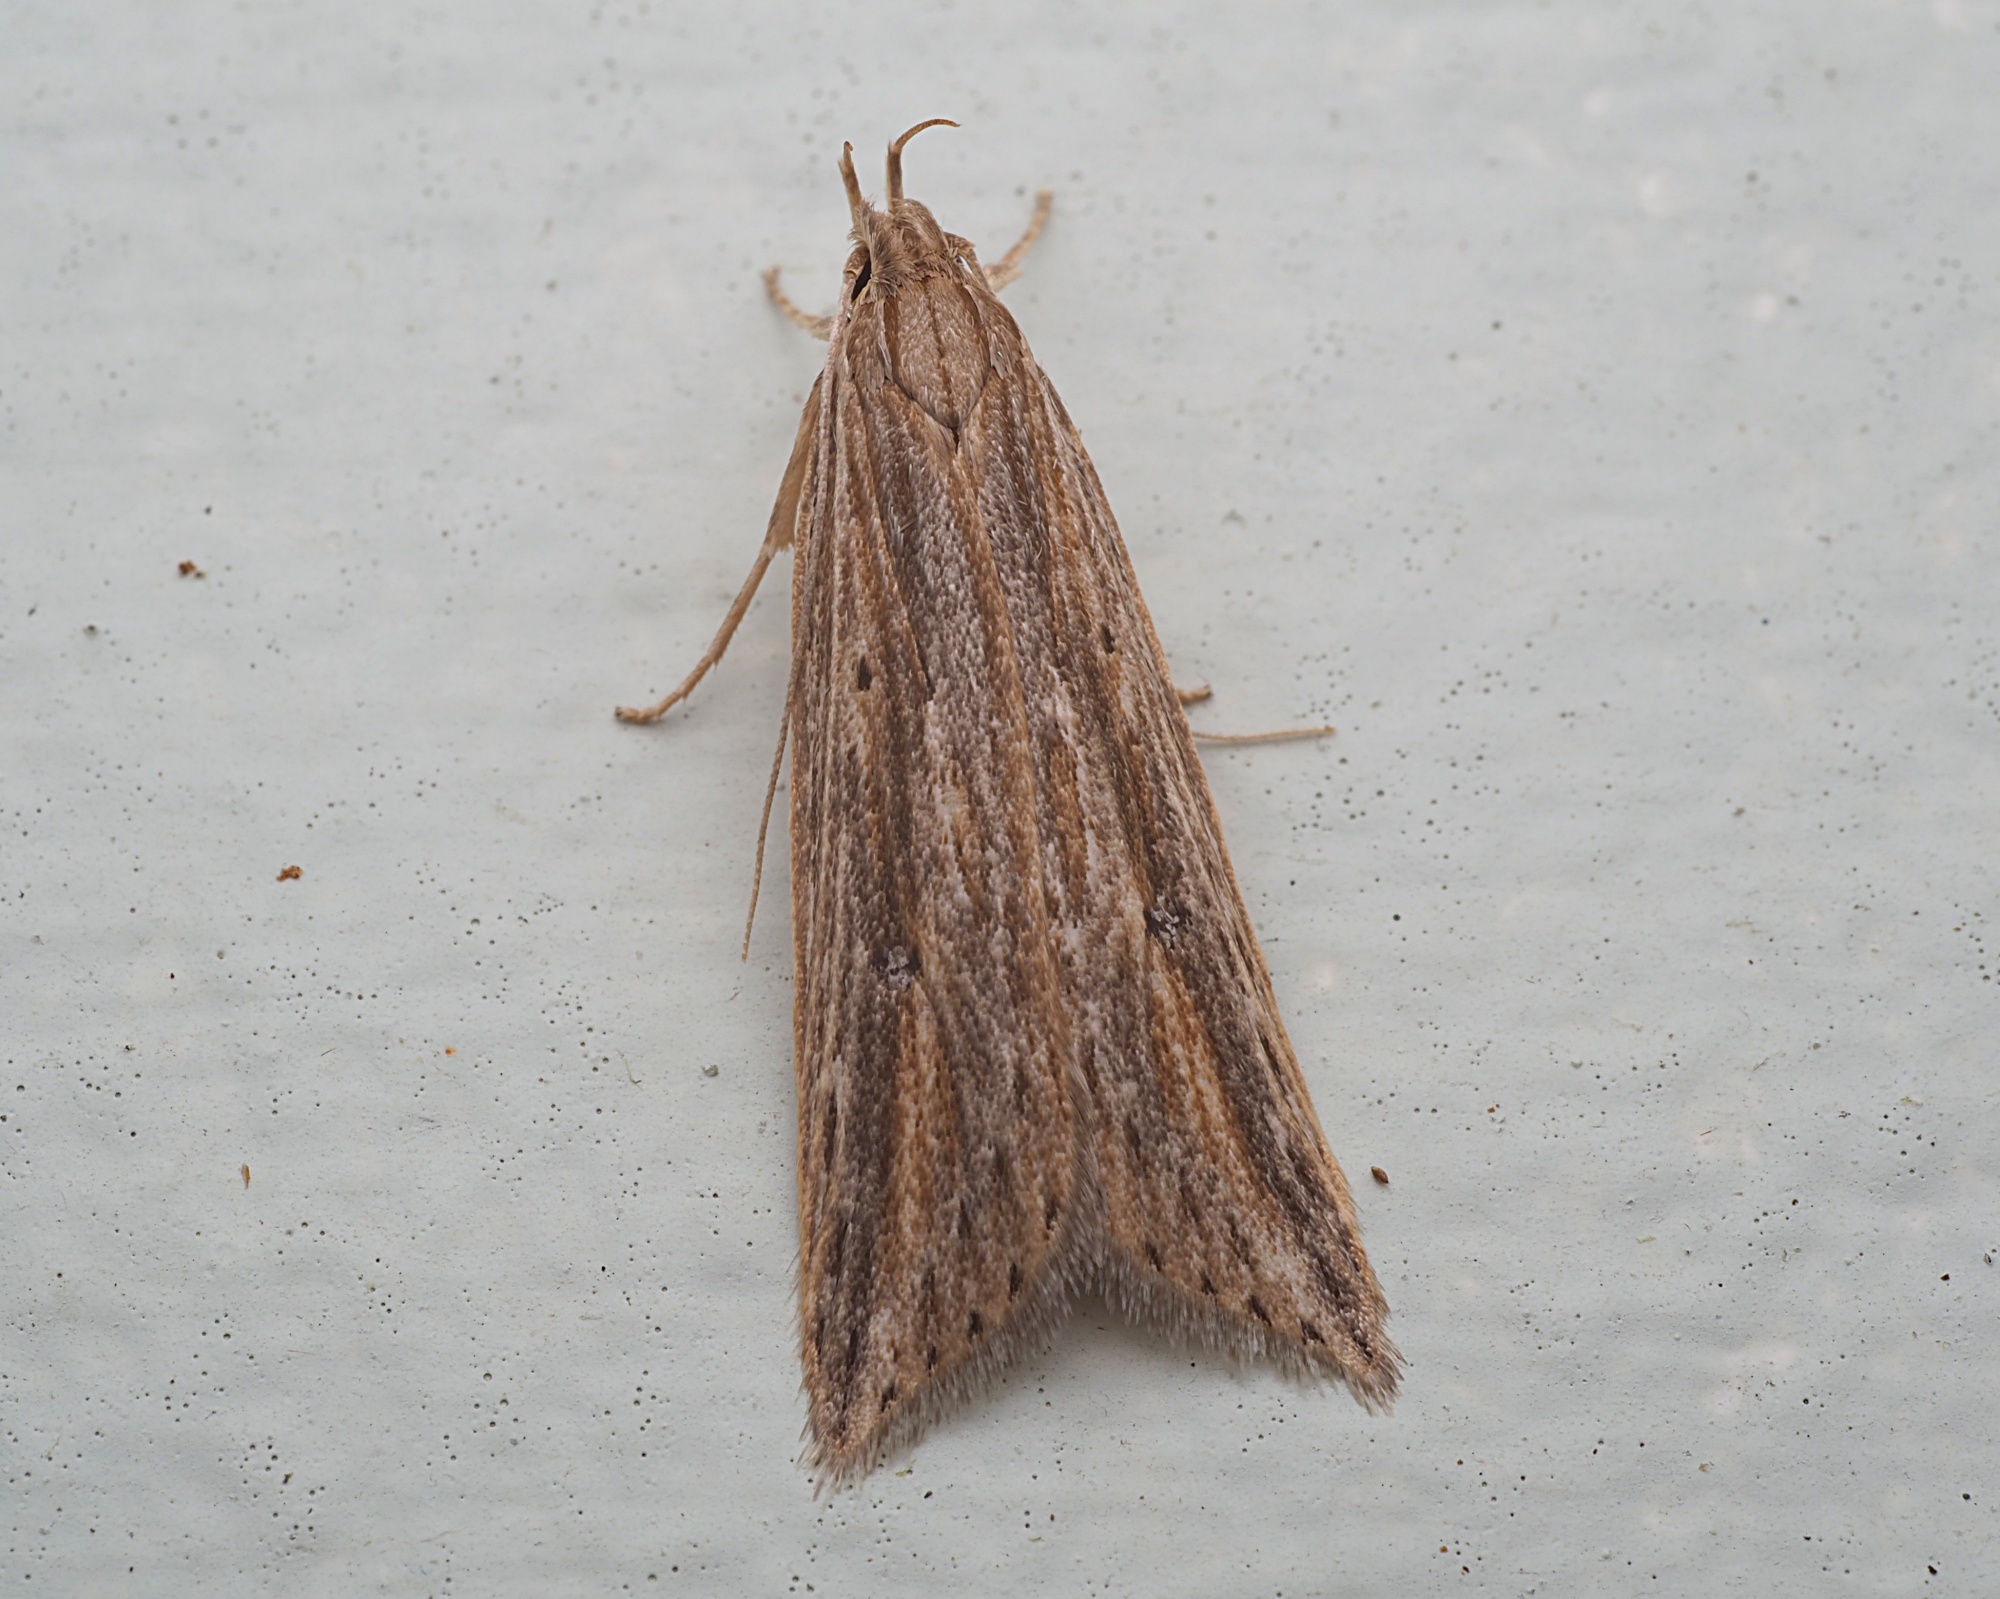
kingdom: Animalia
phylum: Arthropoda
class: Insecta
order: Lepidoptera
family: Xyloryctidae
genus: Donacostola
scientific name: Donacostola notabilis
